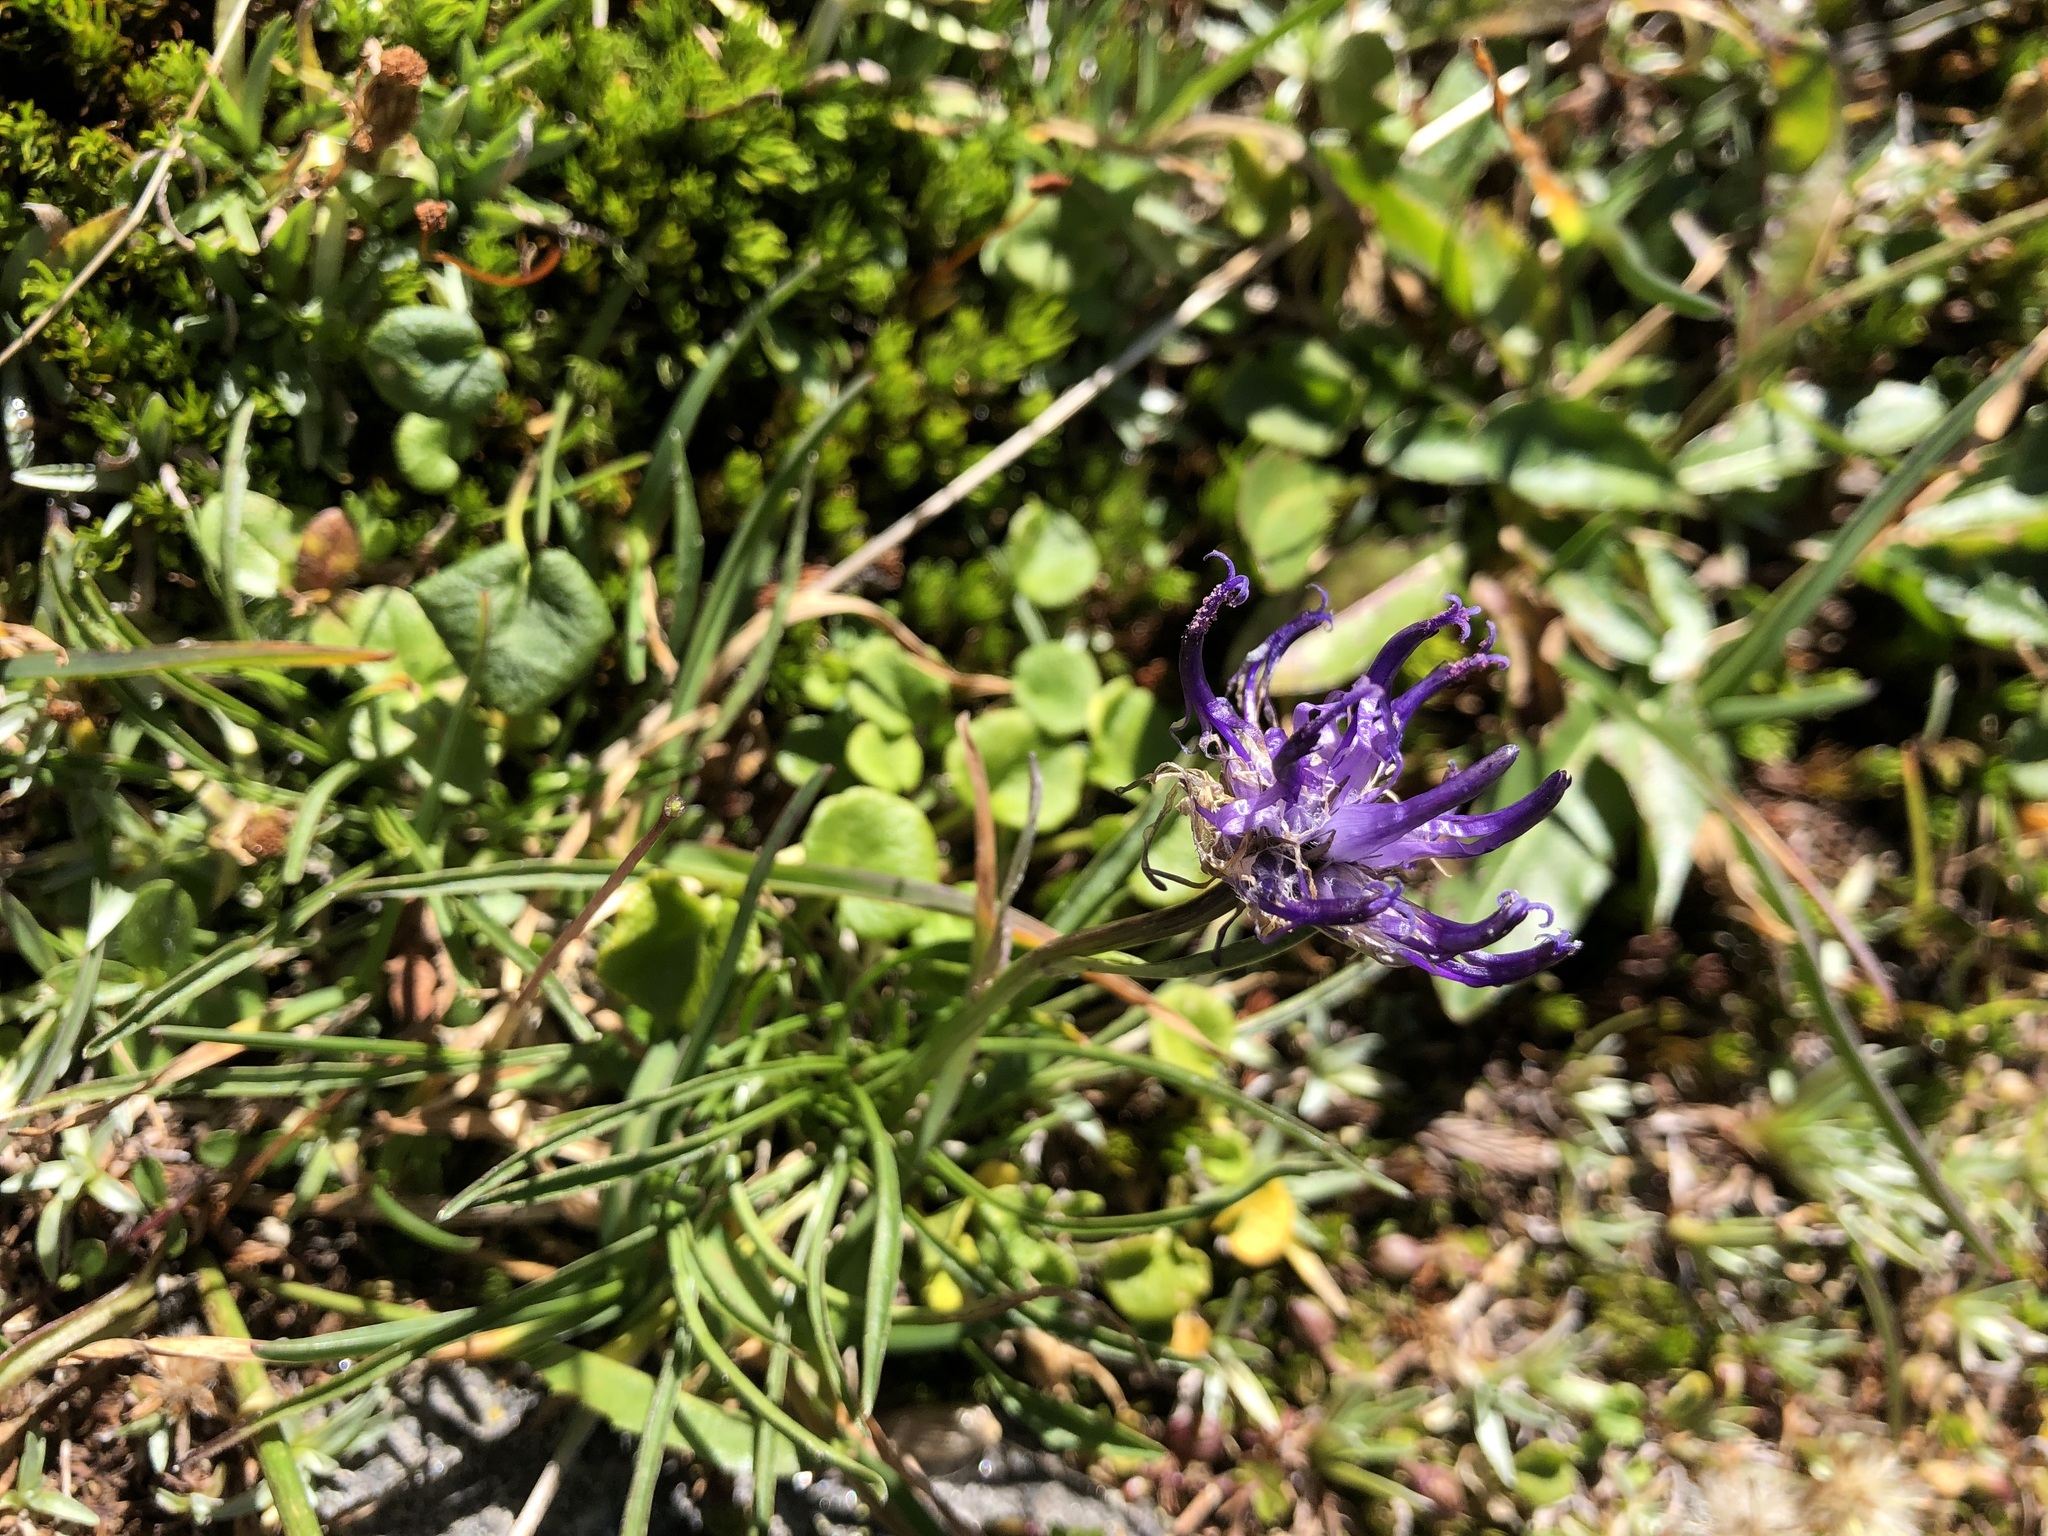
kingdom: Plantae
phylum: Tracheophyta
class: Magnoliopsida
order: Asterales
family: Campanulaceae
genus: Phyteuma
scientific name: Phyteuma hemisphaericum
